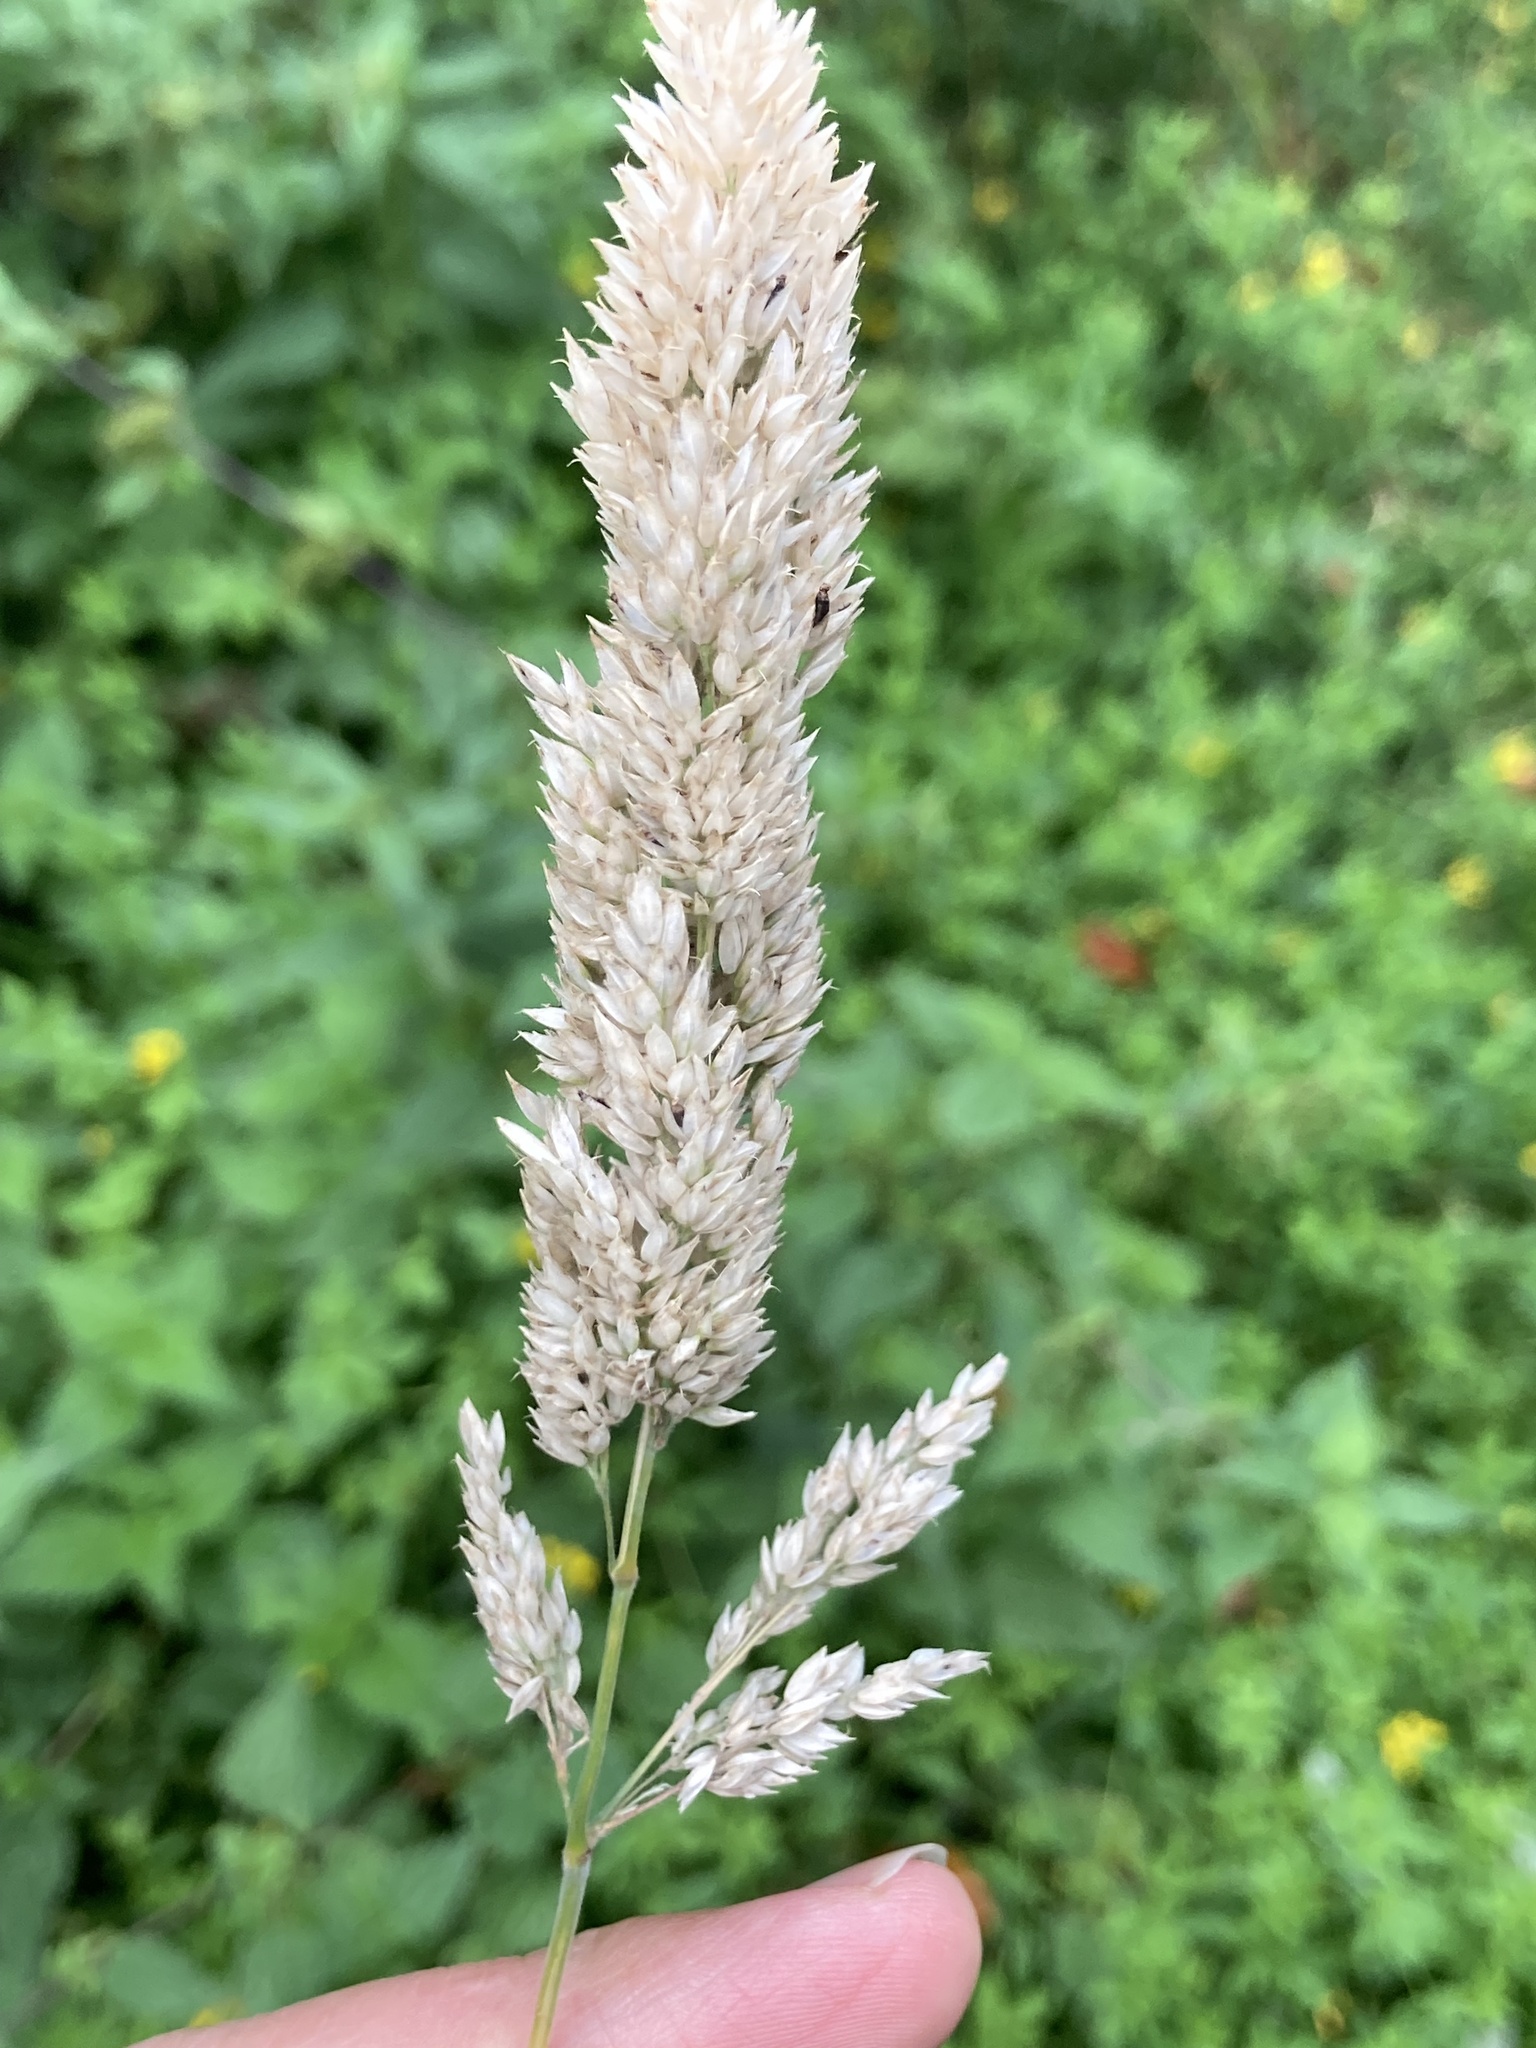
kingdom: Plantae
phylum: Tracheophyta
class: Liliopsida
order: Poales
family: Poaceae
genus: Holcus
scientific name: Holcus lanatus
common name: Yorkshire-fog
